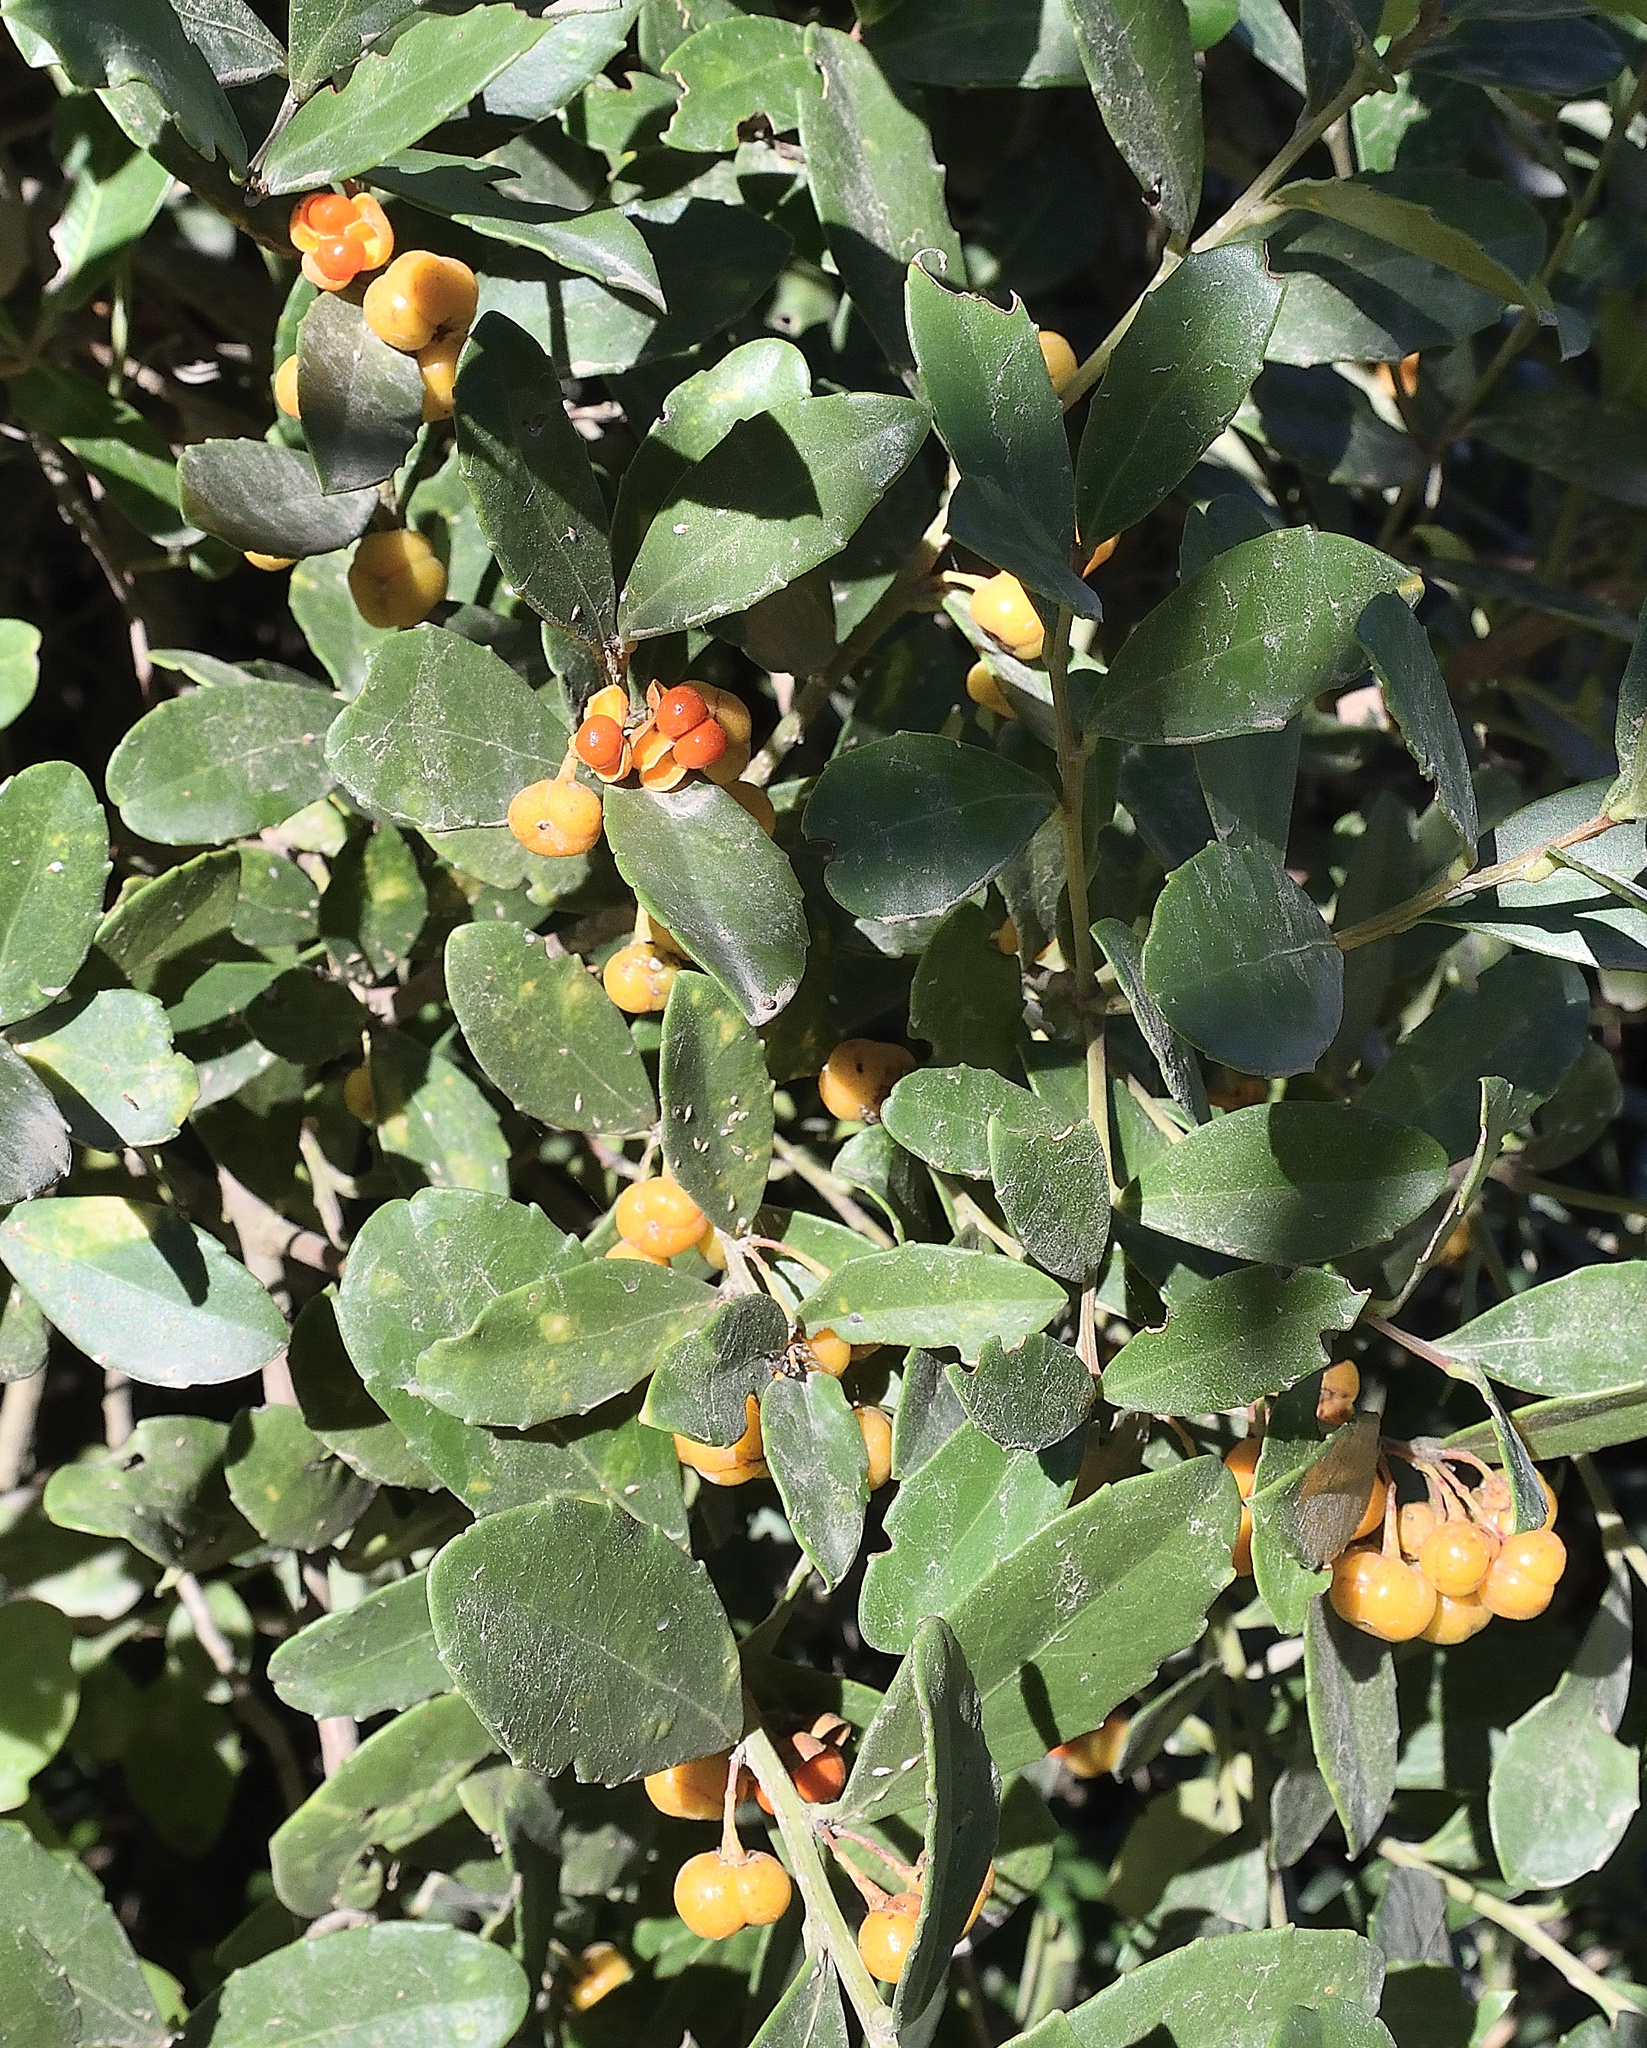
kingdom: Plantae
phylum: Tracheophyta
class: Magnoliopsida
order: Celastrales
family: Celastraceae
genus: Gymnosporia
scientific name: Gymnosporia procumbens
